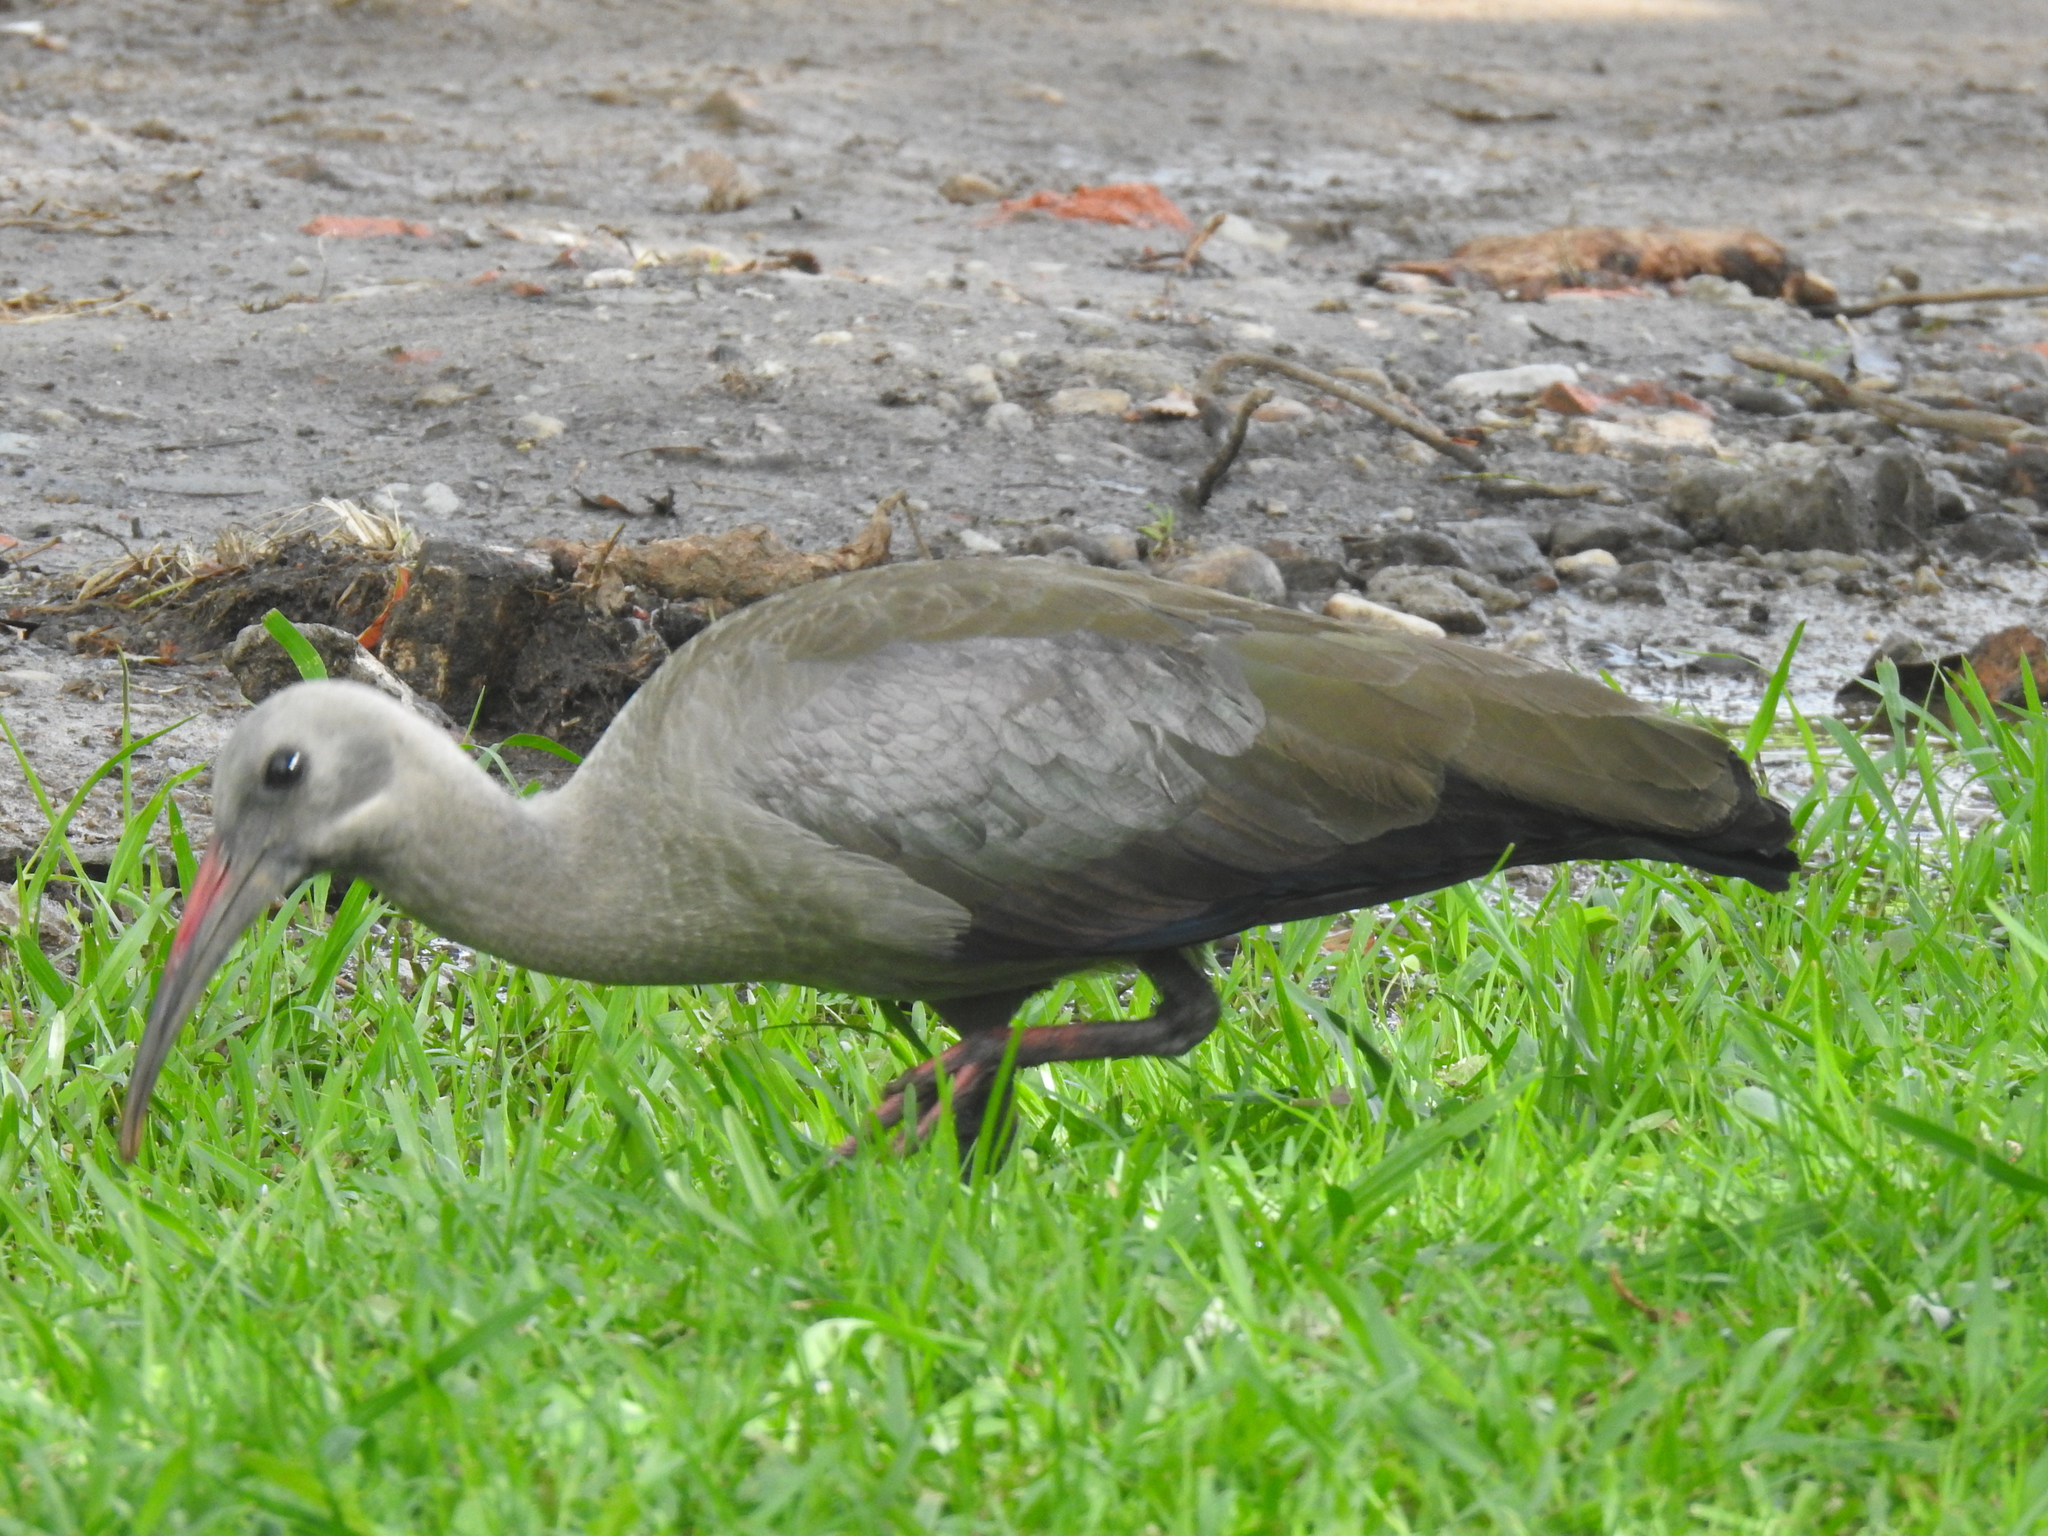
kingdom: Animalia
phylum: Chordata
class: Aves
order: Pelecaniformes
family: Threskiornithidae
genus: Bostrychia
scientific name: Bostrychia hagedash
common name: Hadada ibis
